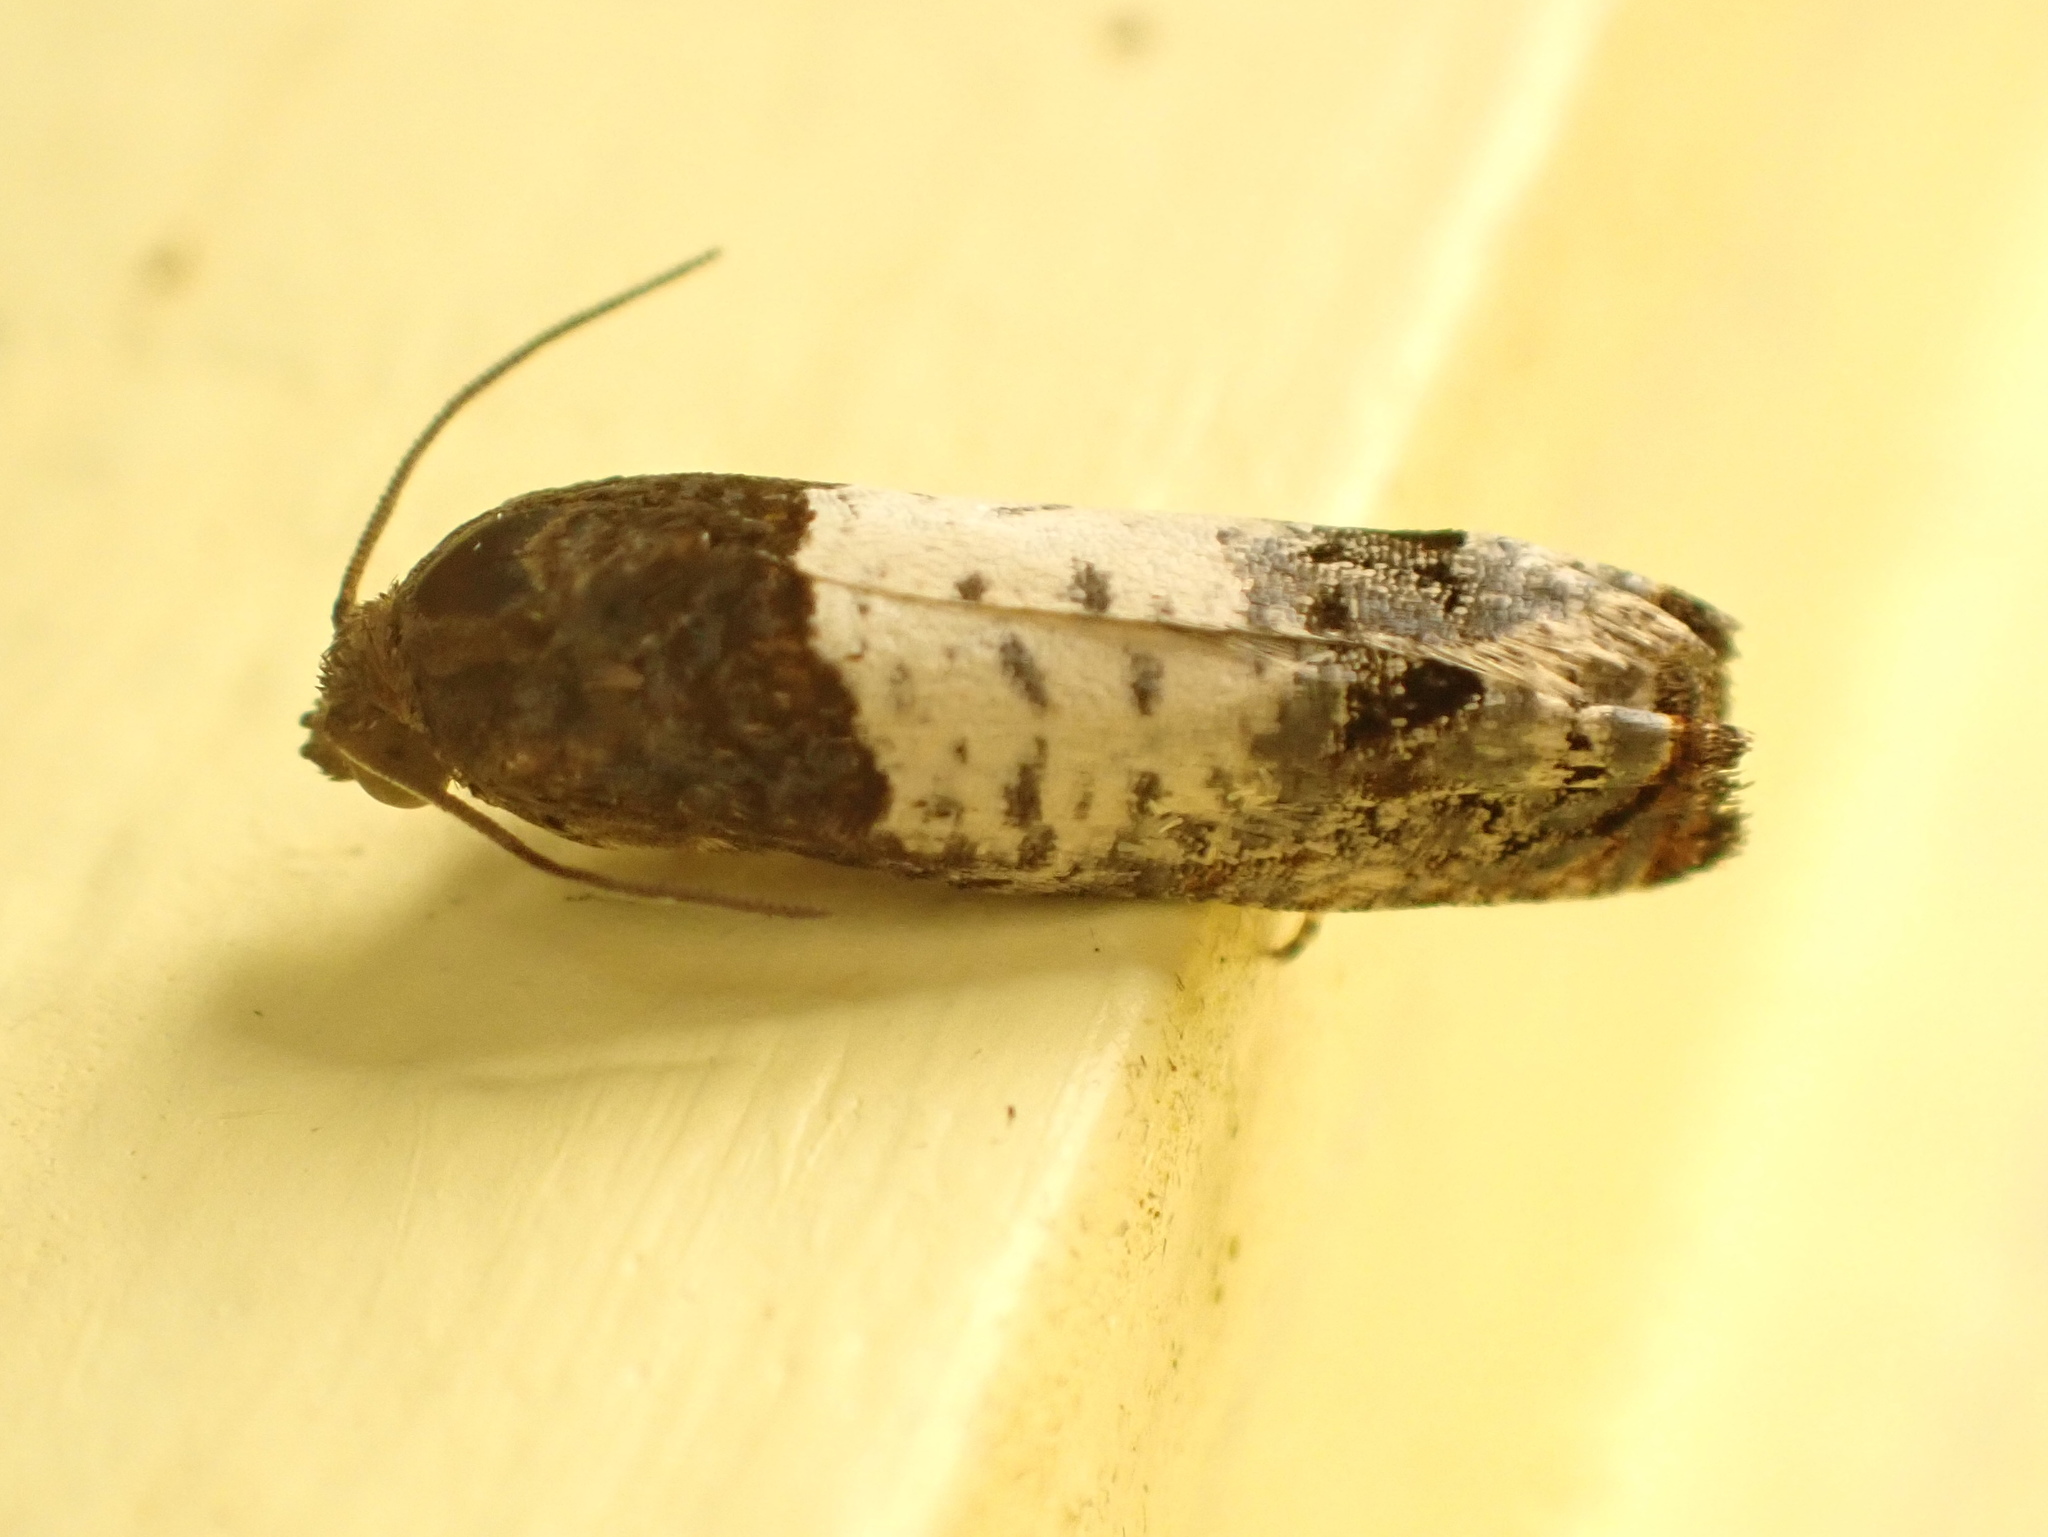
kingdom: Animalia
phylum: Arthropoda
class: Insecta
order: Lepidoptera
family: Tortricidae
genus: Epiblema
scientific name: Epiblema scudderiana
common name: Goldenrod gall moth
